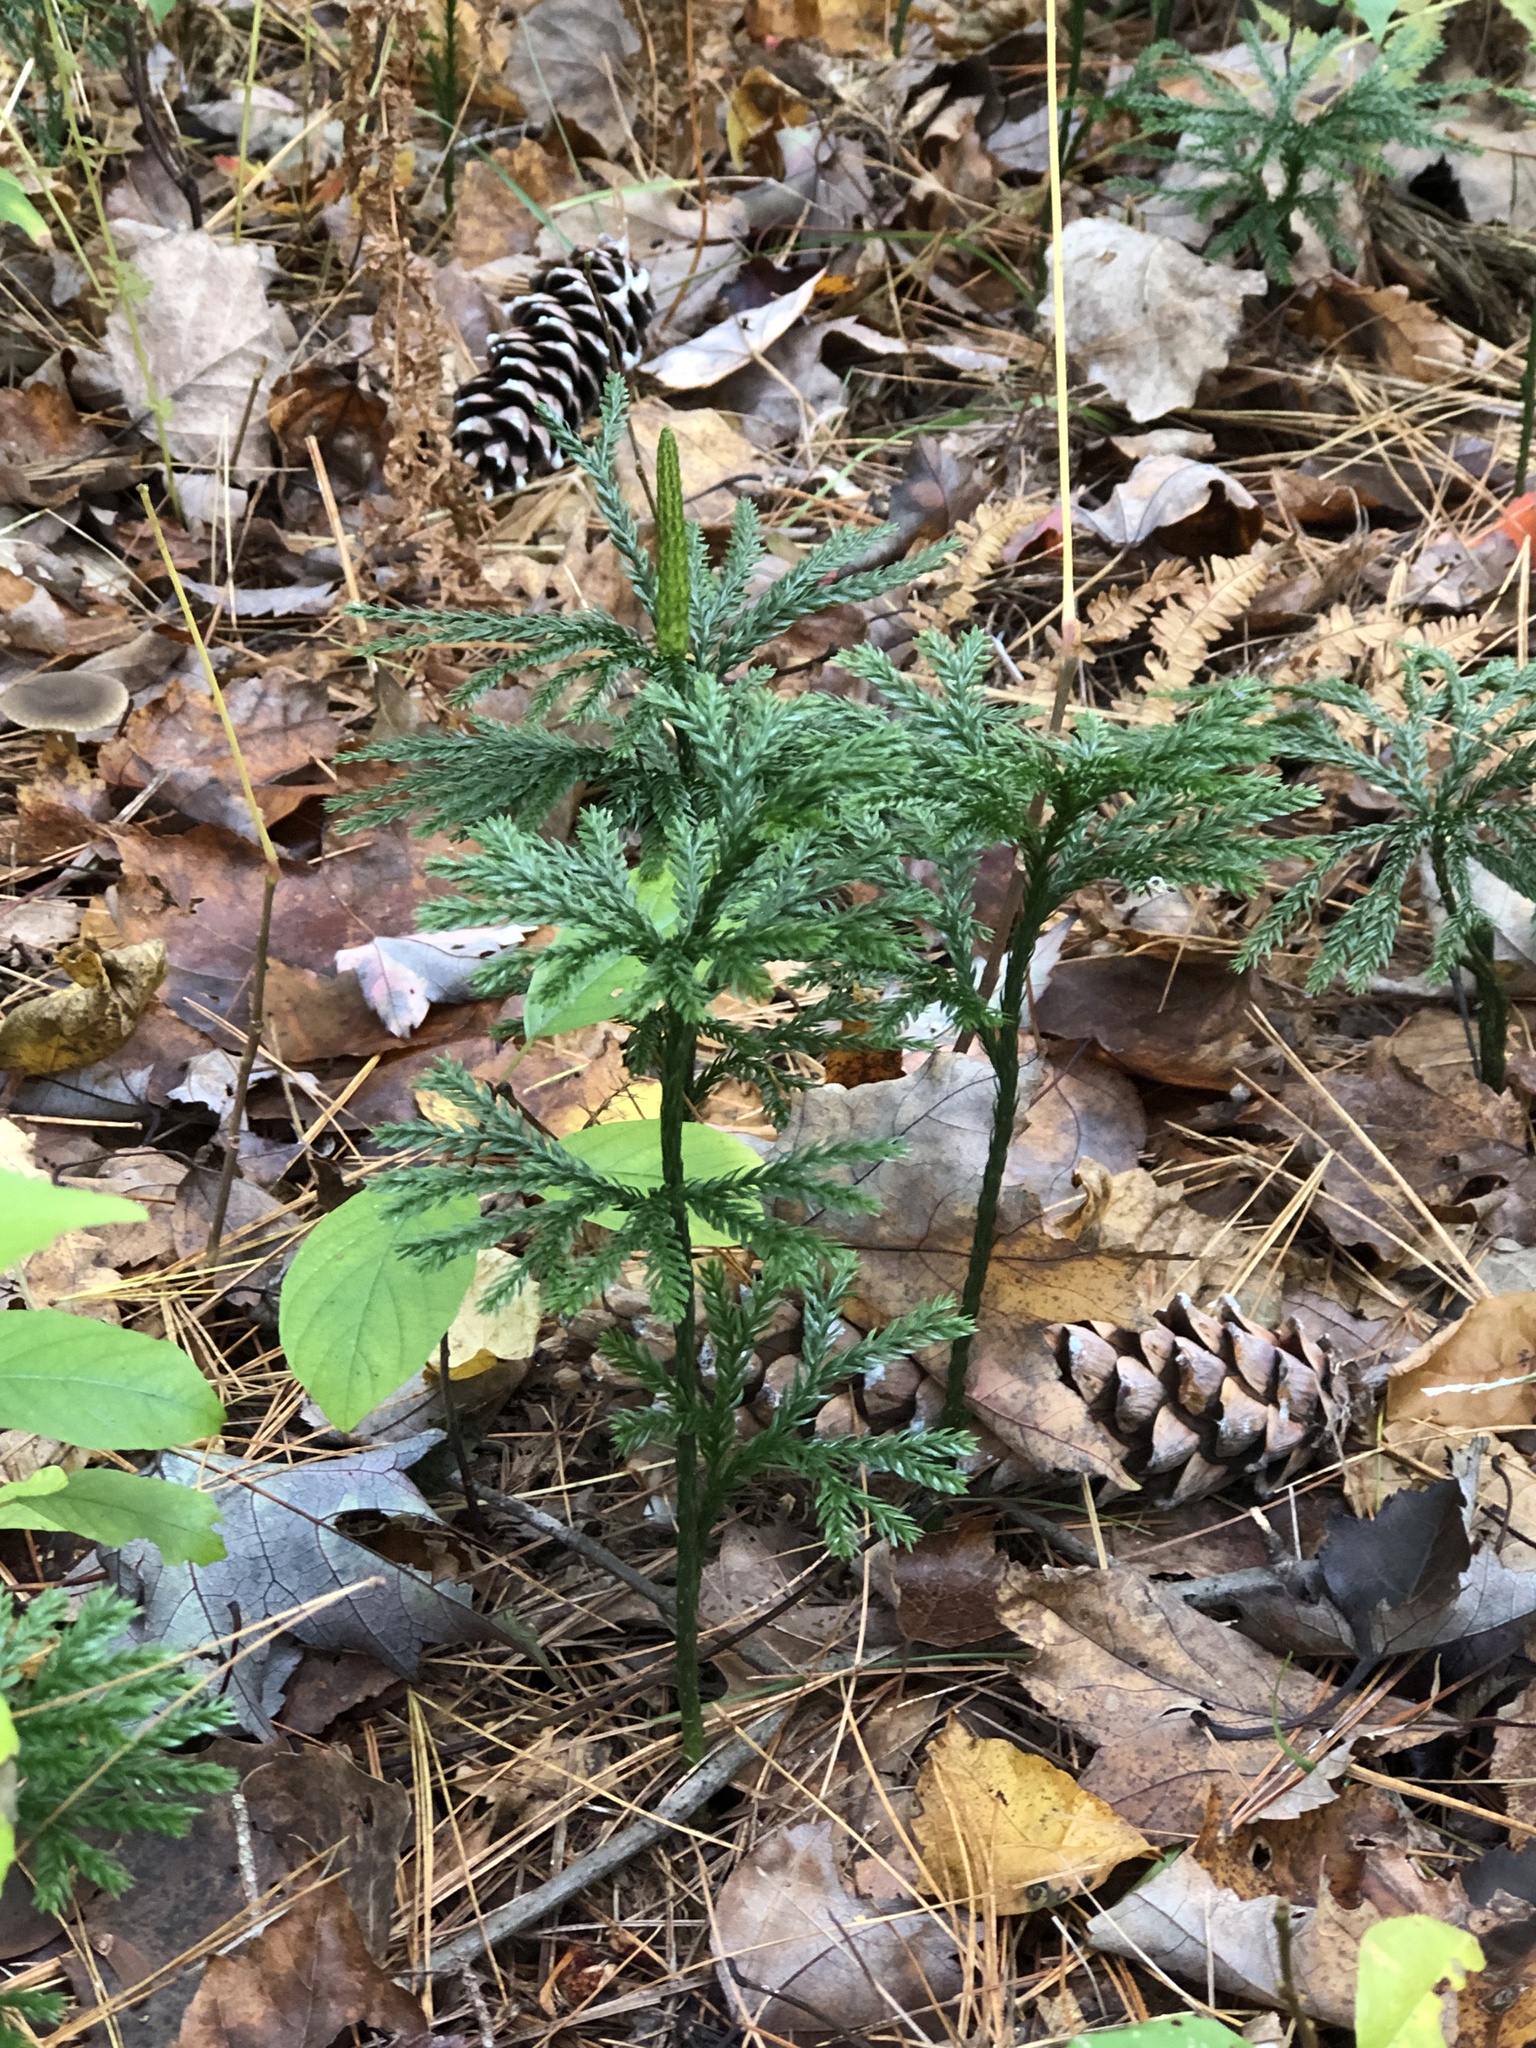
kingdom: Plantae
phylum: Tracheophyta
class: Lycopodiopsida
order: Lycopodiales
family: Lycopodiaceae
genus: Dendrolycopodium
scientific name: Dendrolycopodium obscurum
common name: Common ground-pine
